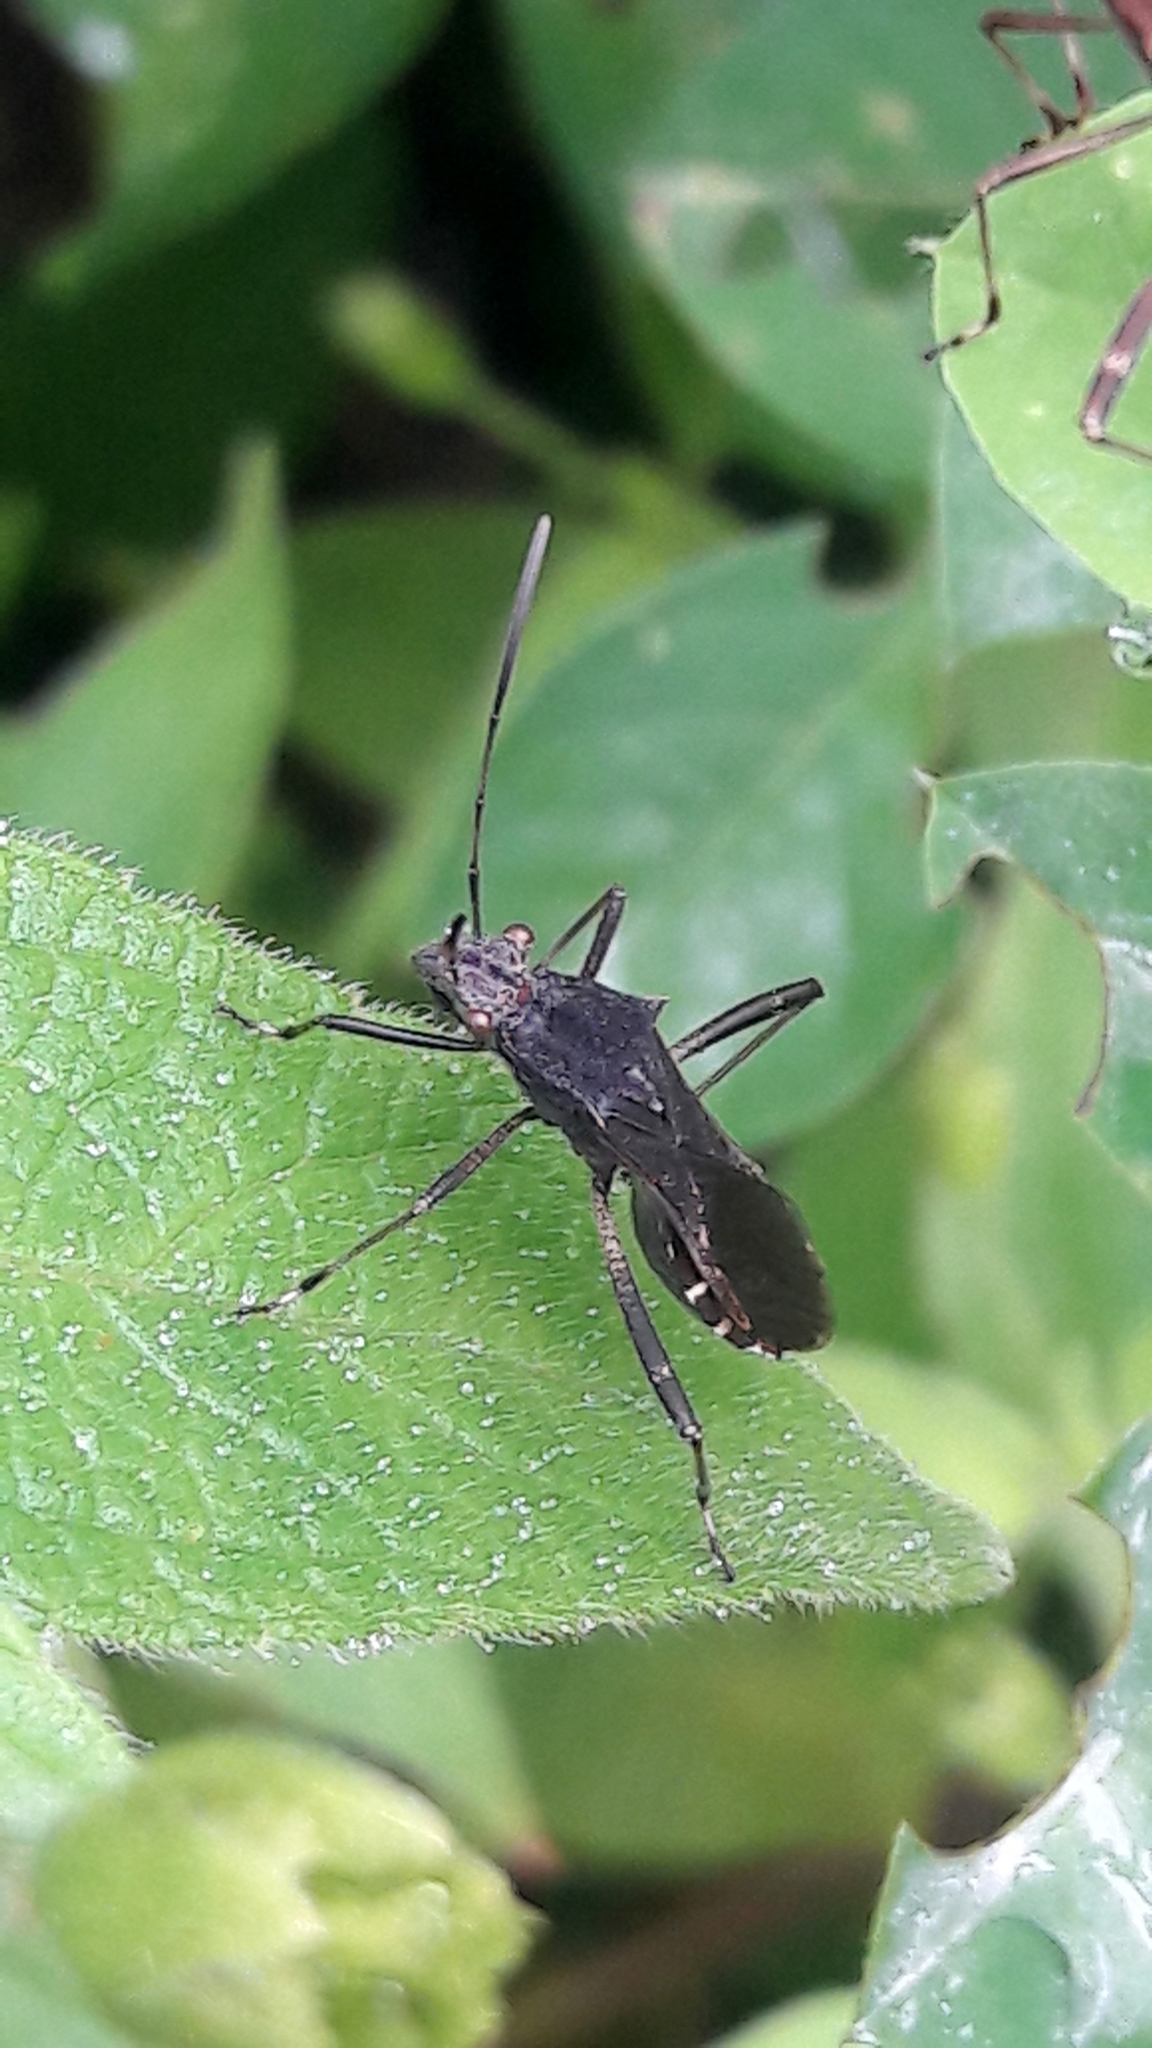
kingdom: Animalia
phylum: Arthropoda
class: Insecta
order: Hemiptera
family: Alydidae
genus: Neomegalotomus
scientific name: Neomegalotomus parvus
